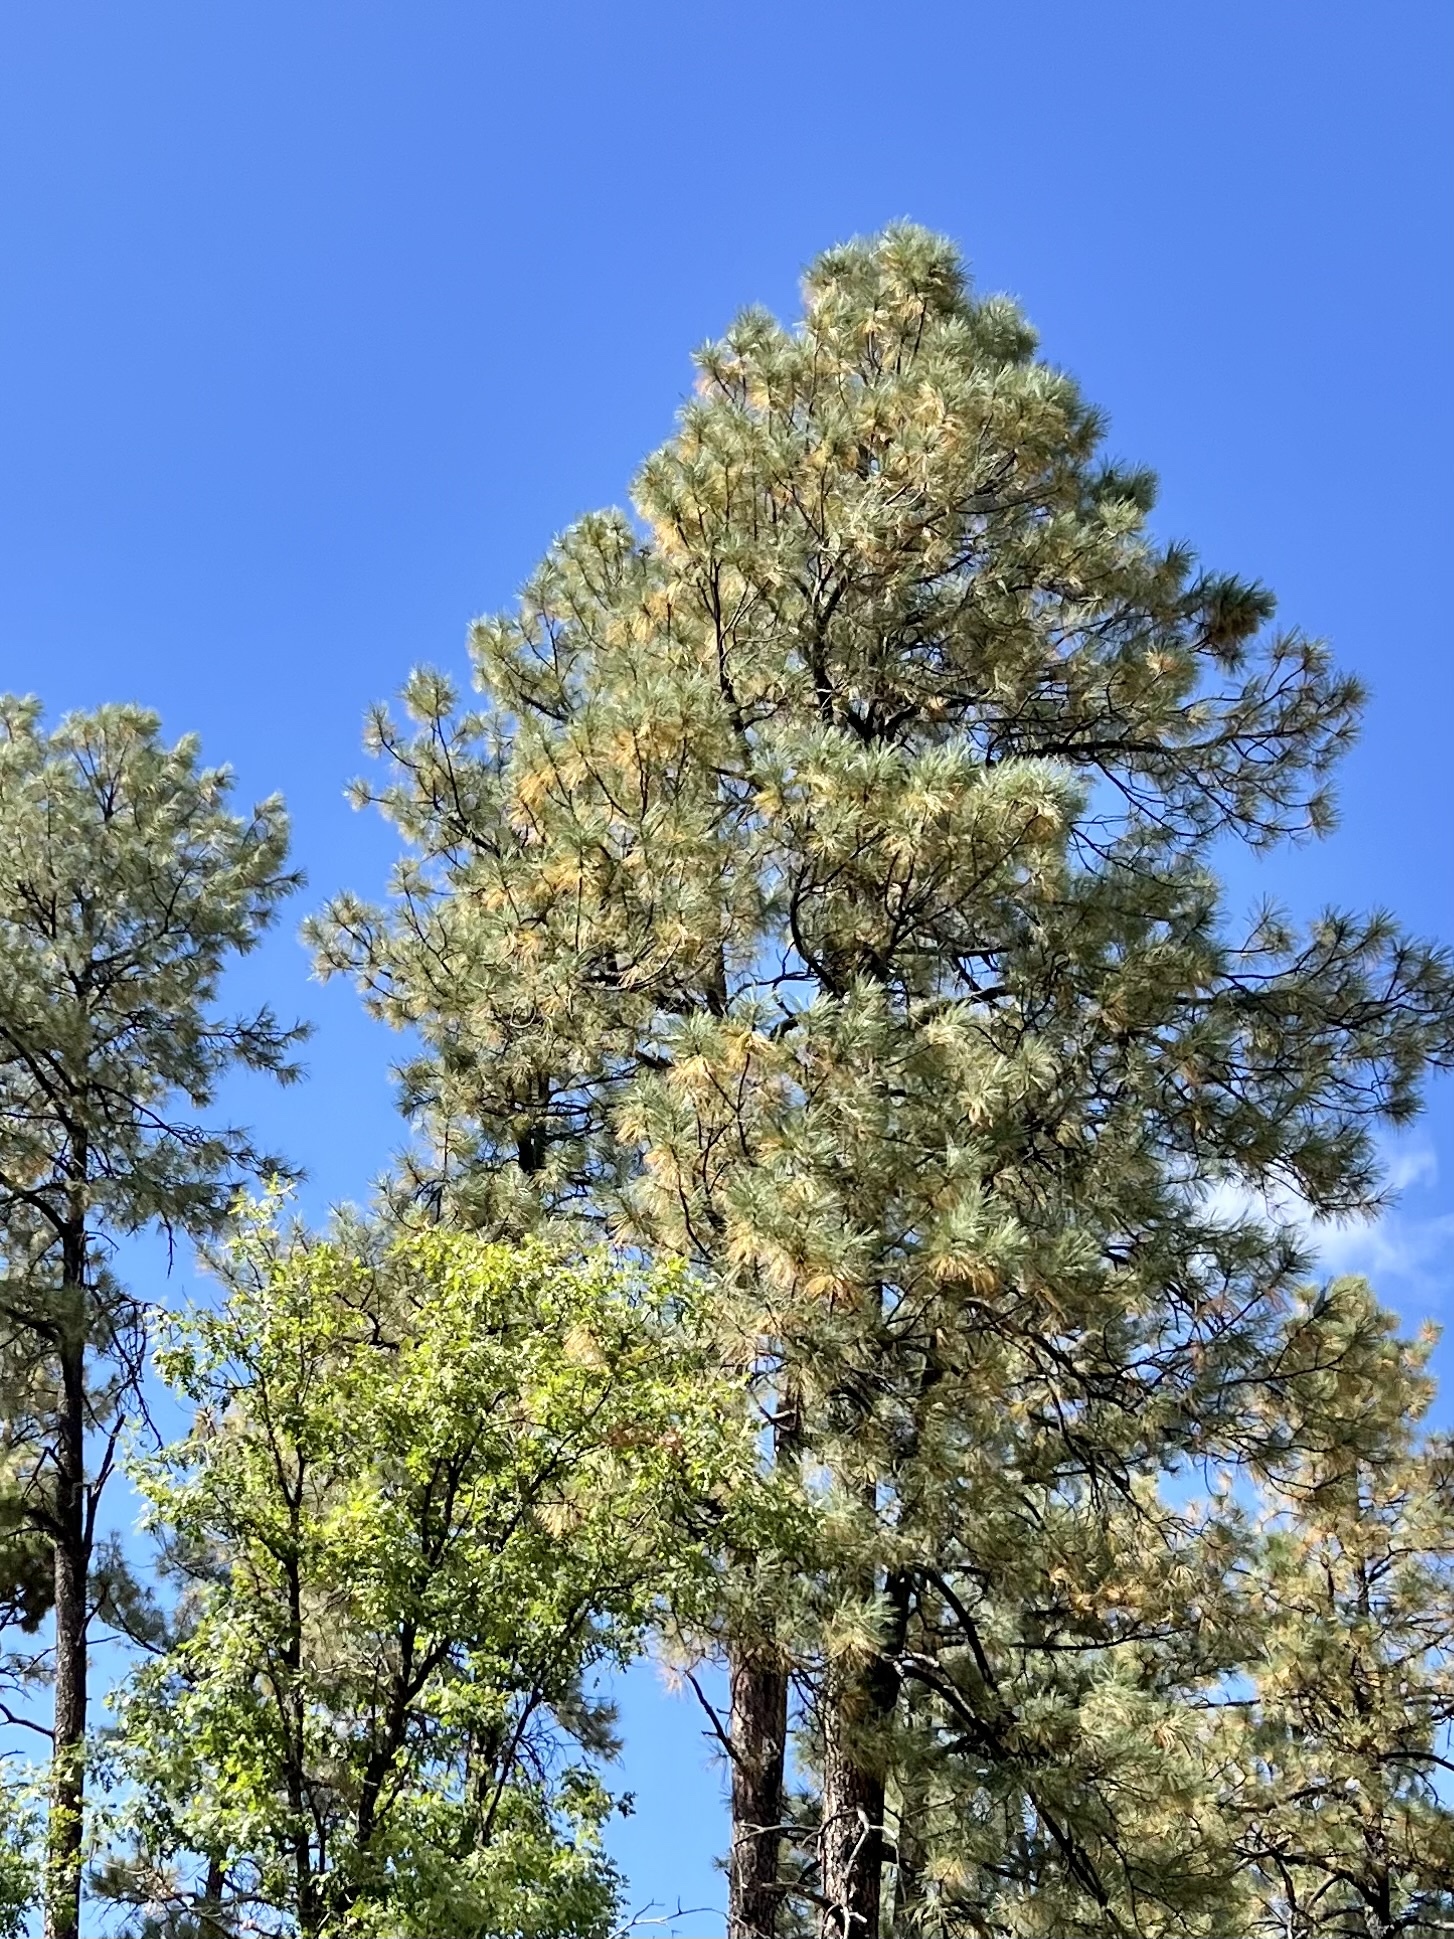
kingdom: Plantae
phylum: Tracheophyta
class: Pinopsida
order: Pinales
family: Pinaceae
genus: Pinus
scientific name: Pinus ponderosa
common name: Western yellow-pine
